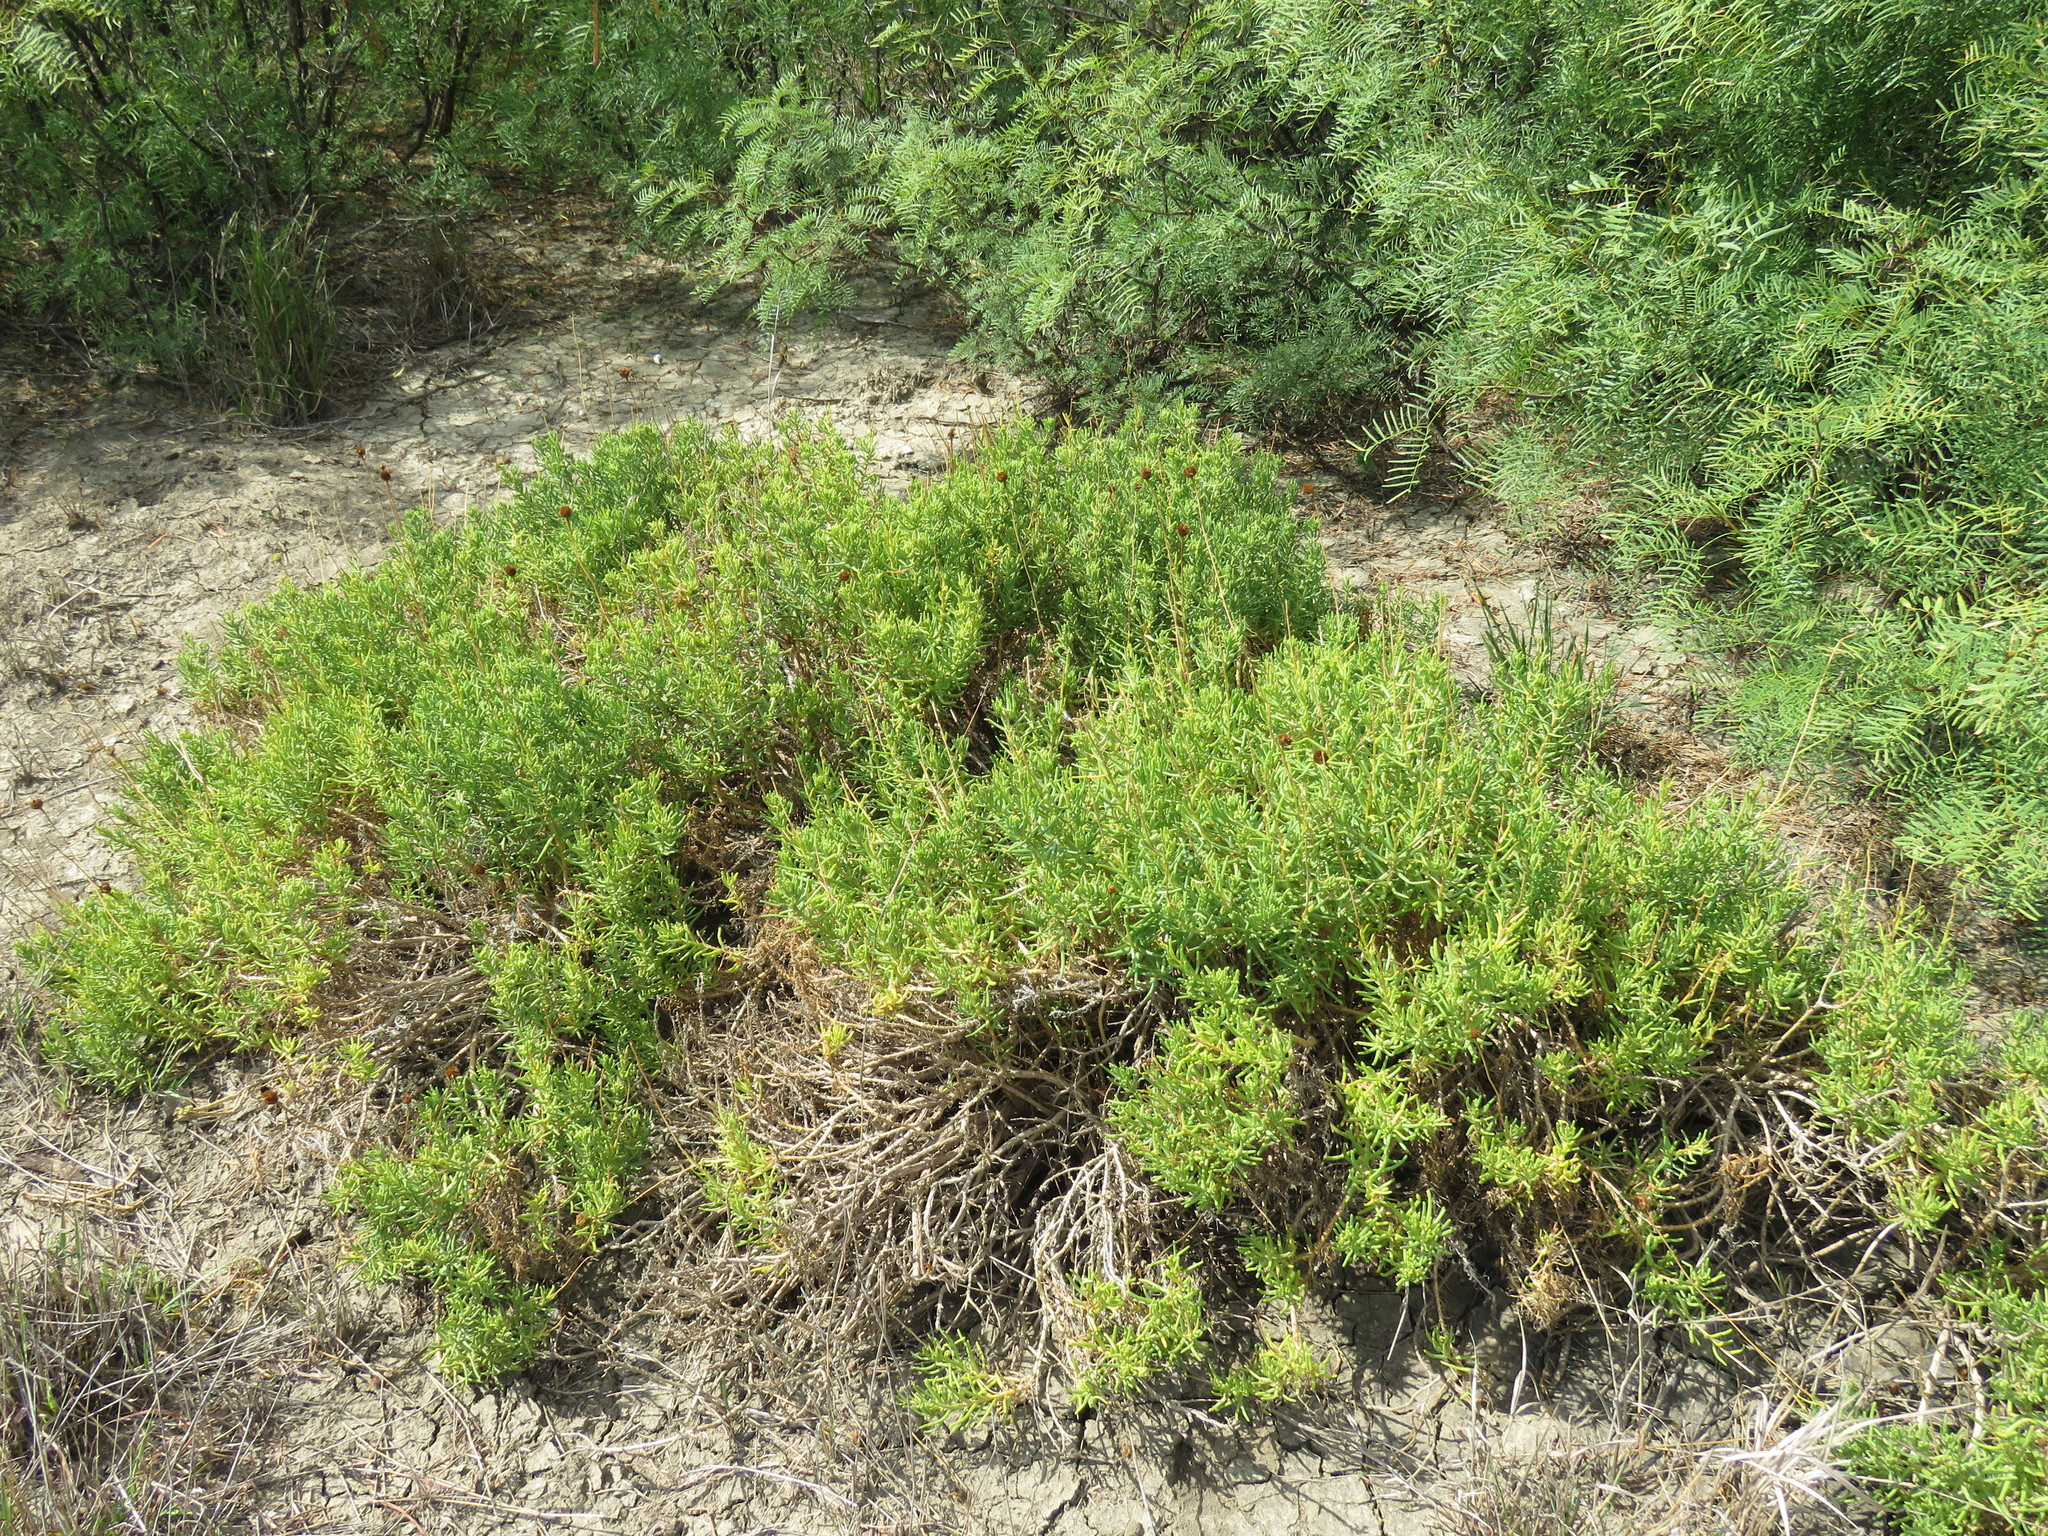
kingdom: Plantae
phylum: Tracheophyta
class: Magnoliopsida
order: Asterales
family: Asteraceae
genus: Varilla
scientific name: Varilla texana
